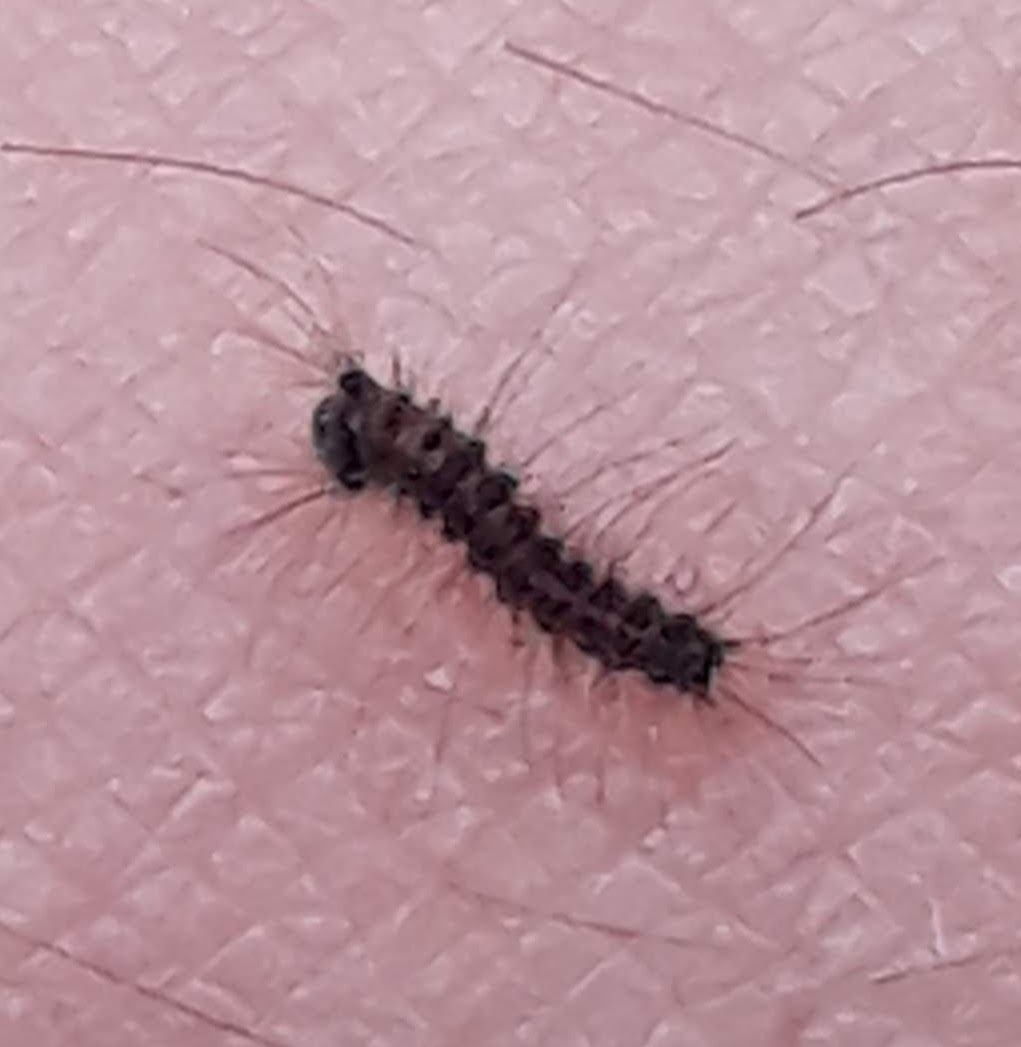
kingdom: Animalia
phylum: Arthropoda
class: Insecta
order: Lepidoptera
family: Erebidae
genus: Lymantria
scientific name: Lymantria dispar
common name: Gypsy moth
